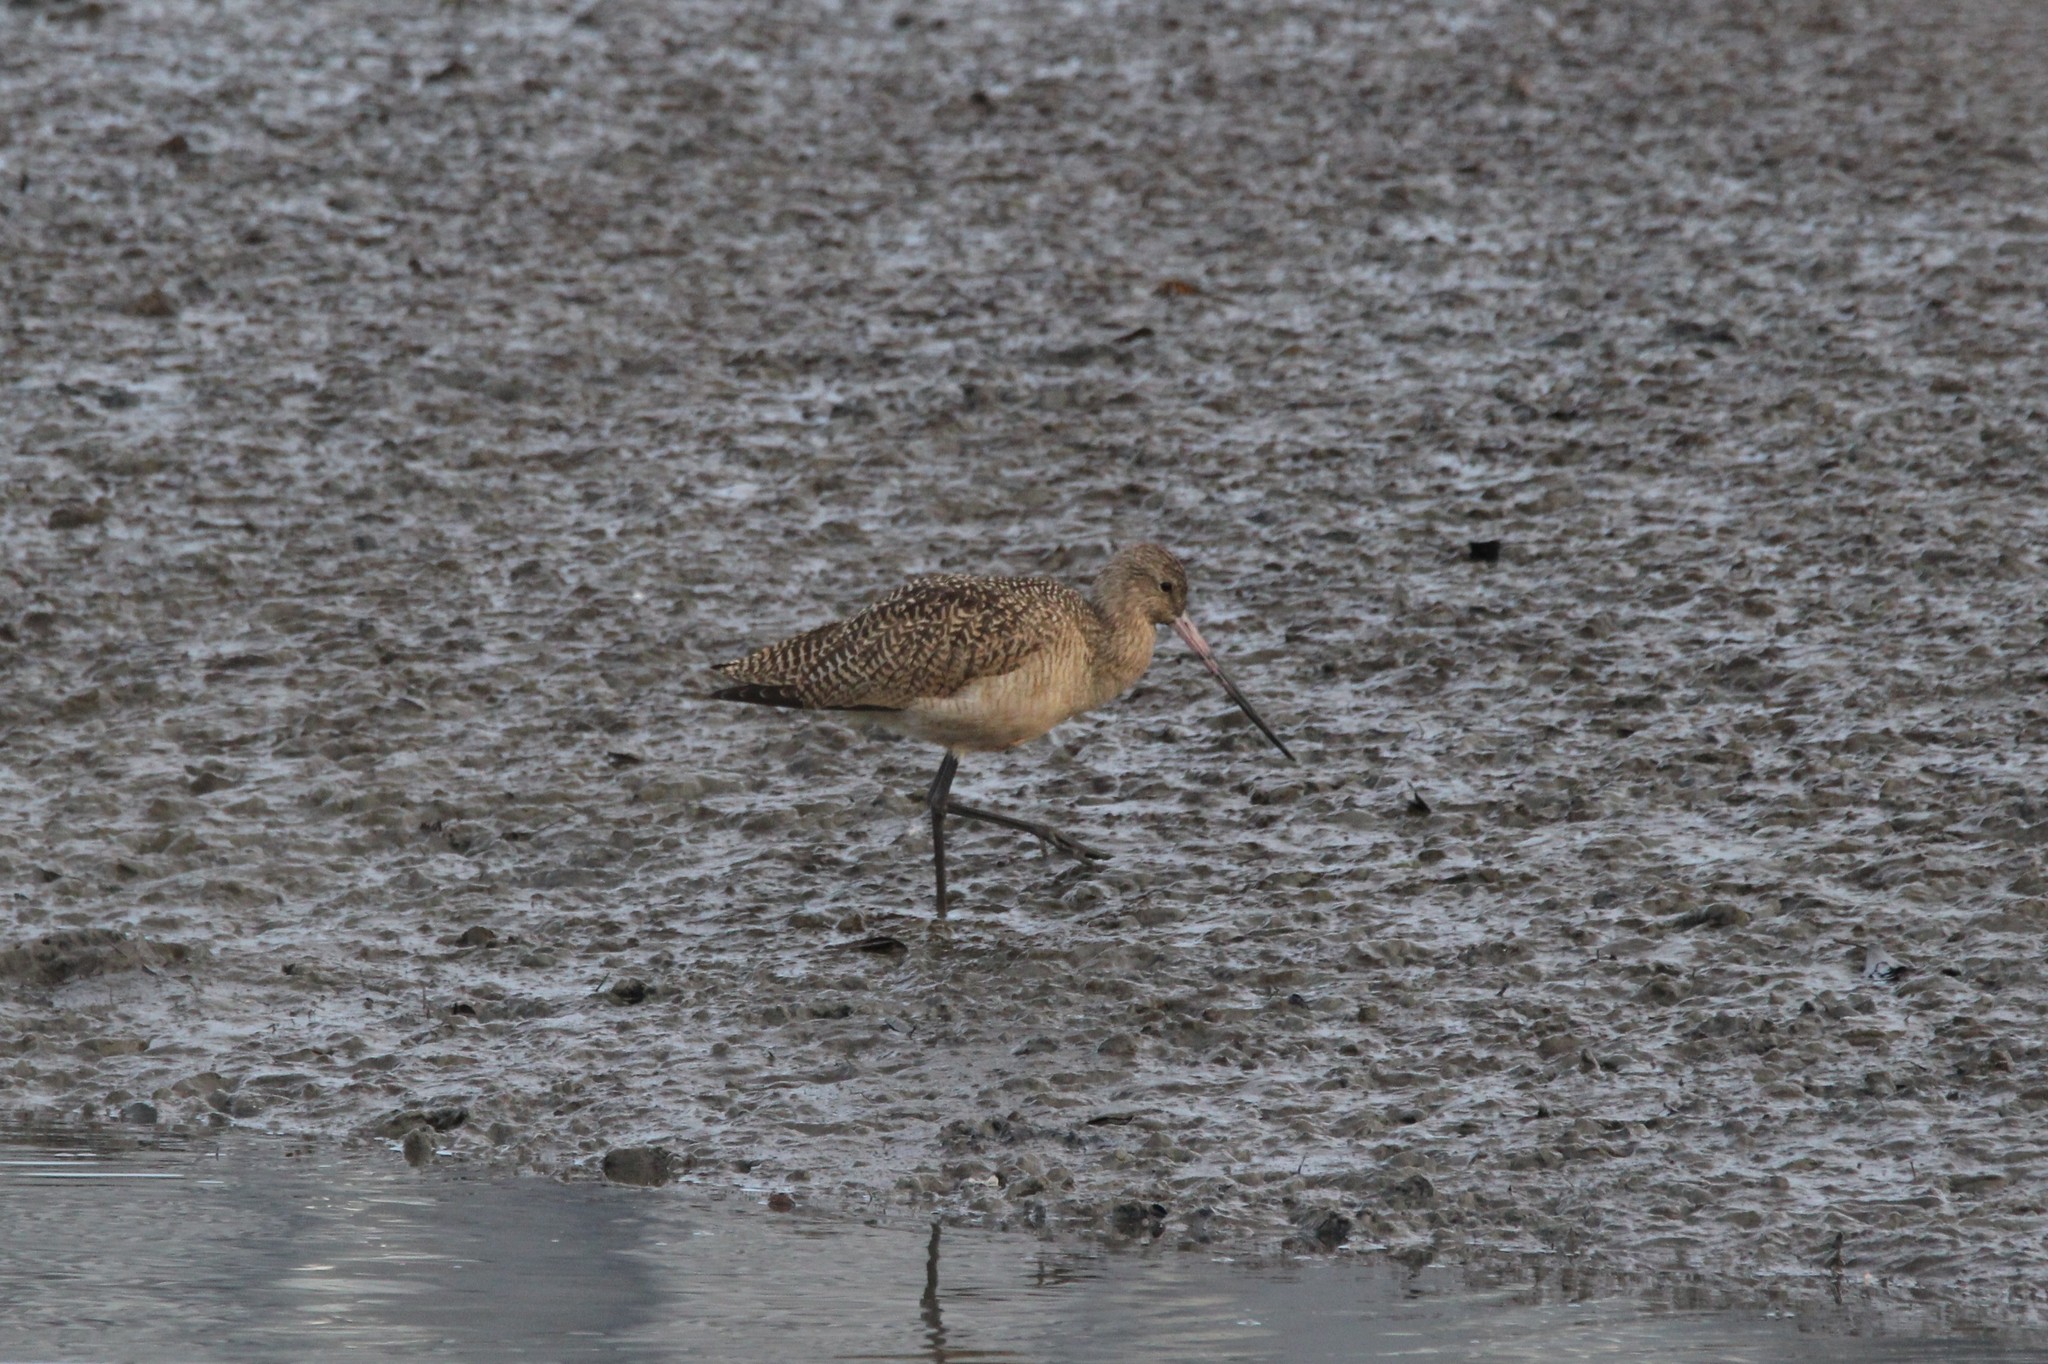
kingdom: Animalia
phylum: Chordata
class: Aves
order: Charadriiformes
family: Scolopacidae
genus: Limosa
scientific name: Limosa fedoa
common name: Marbled godwit
